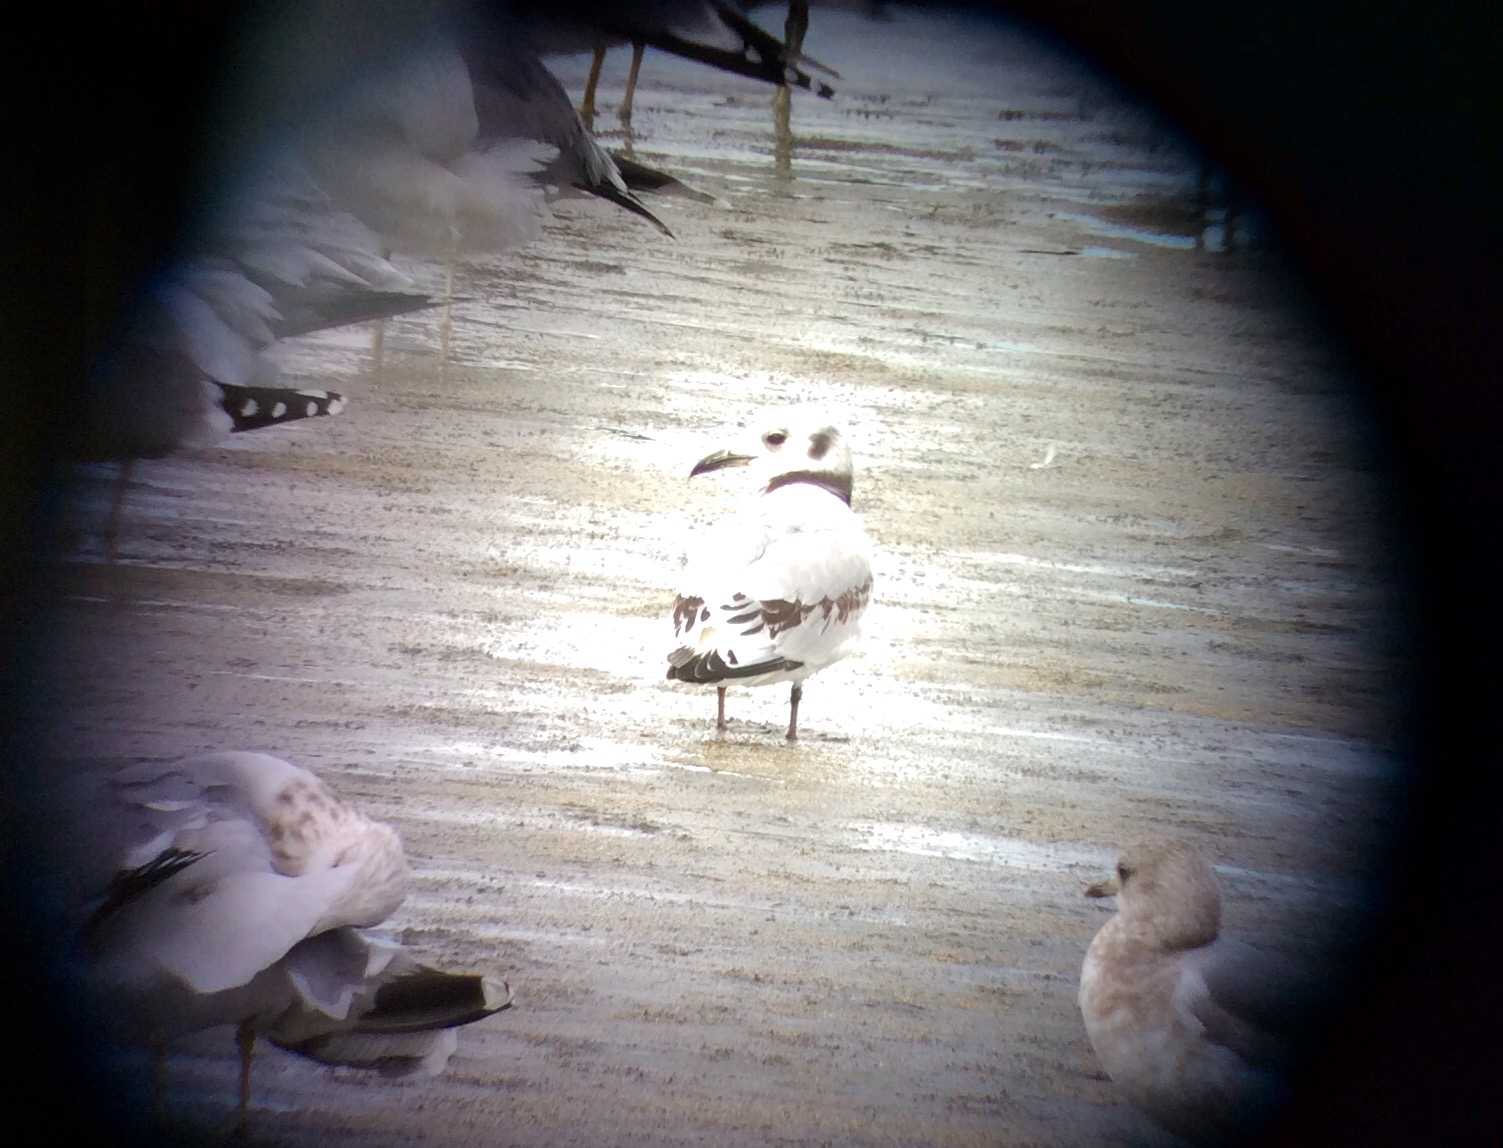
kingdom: Animalia
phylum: Chordata
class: Aves
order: Charadriiformes
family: Laridae
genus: Rissa
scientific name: Rissa tridactyla
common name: Black-legged kittiwake
